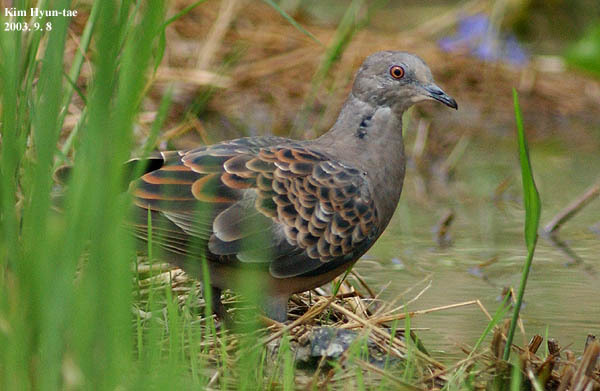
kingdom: Animalia
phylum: Chordata
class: Aves
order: Columbiformes
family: Columbidae
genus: Streptopelia
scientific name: Streptopelia orientalis
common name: Oriental turtle dove
